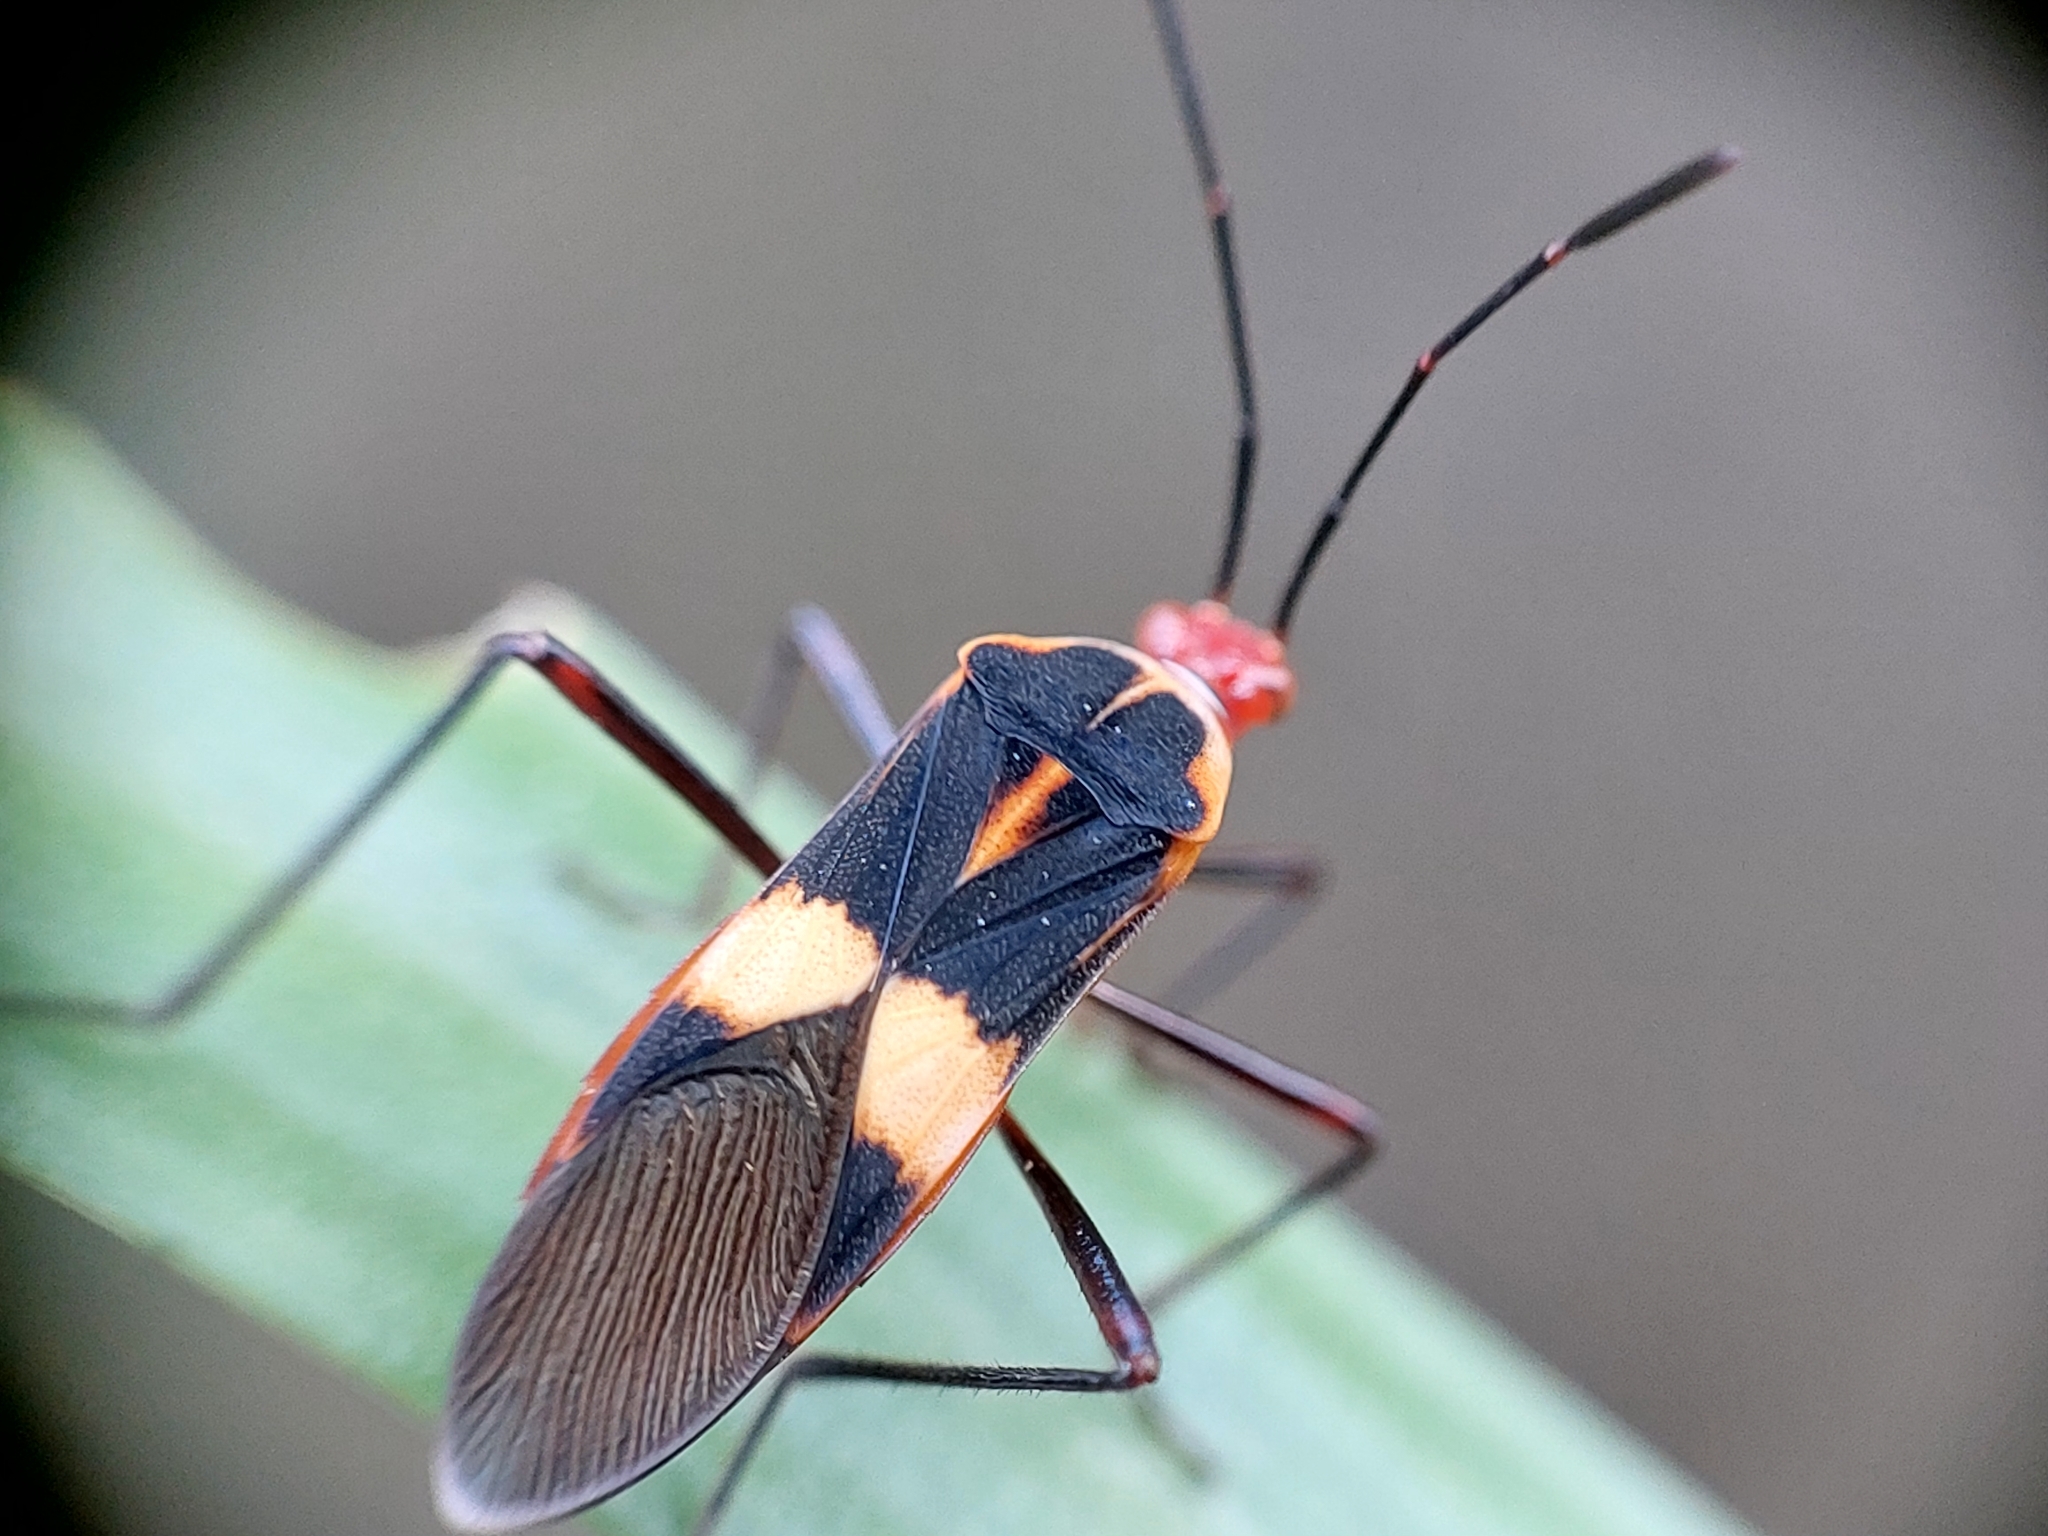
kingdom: Animalia
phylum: Arthropoda
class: Insecta
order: Hemiptera
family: Coreidae
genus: Hypselonotus
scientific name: Hypselonotus interruptus
